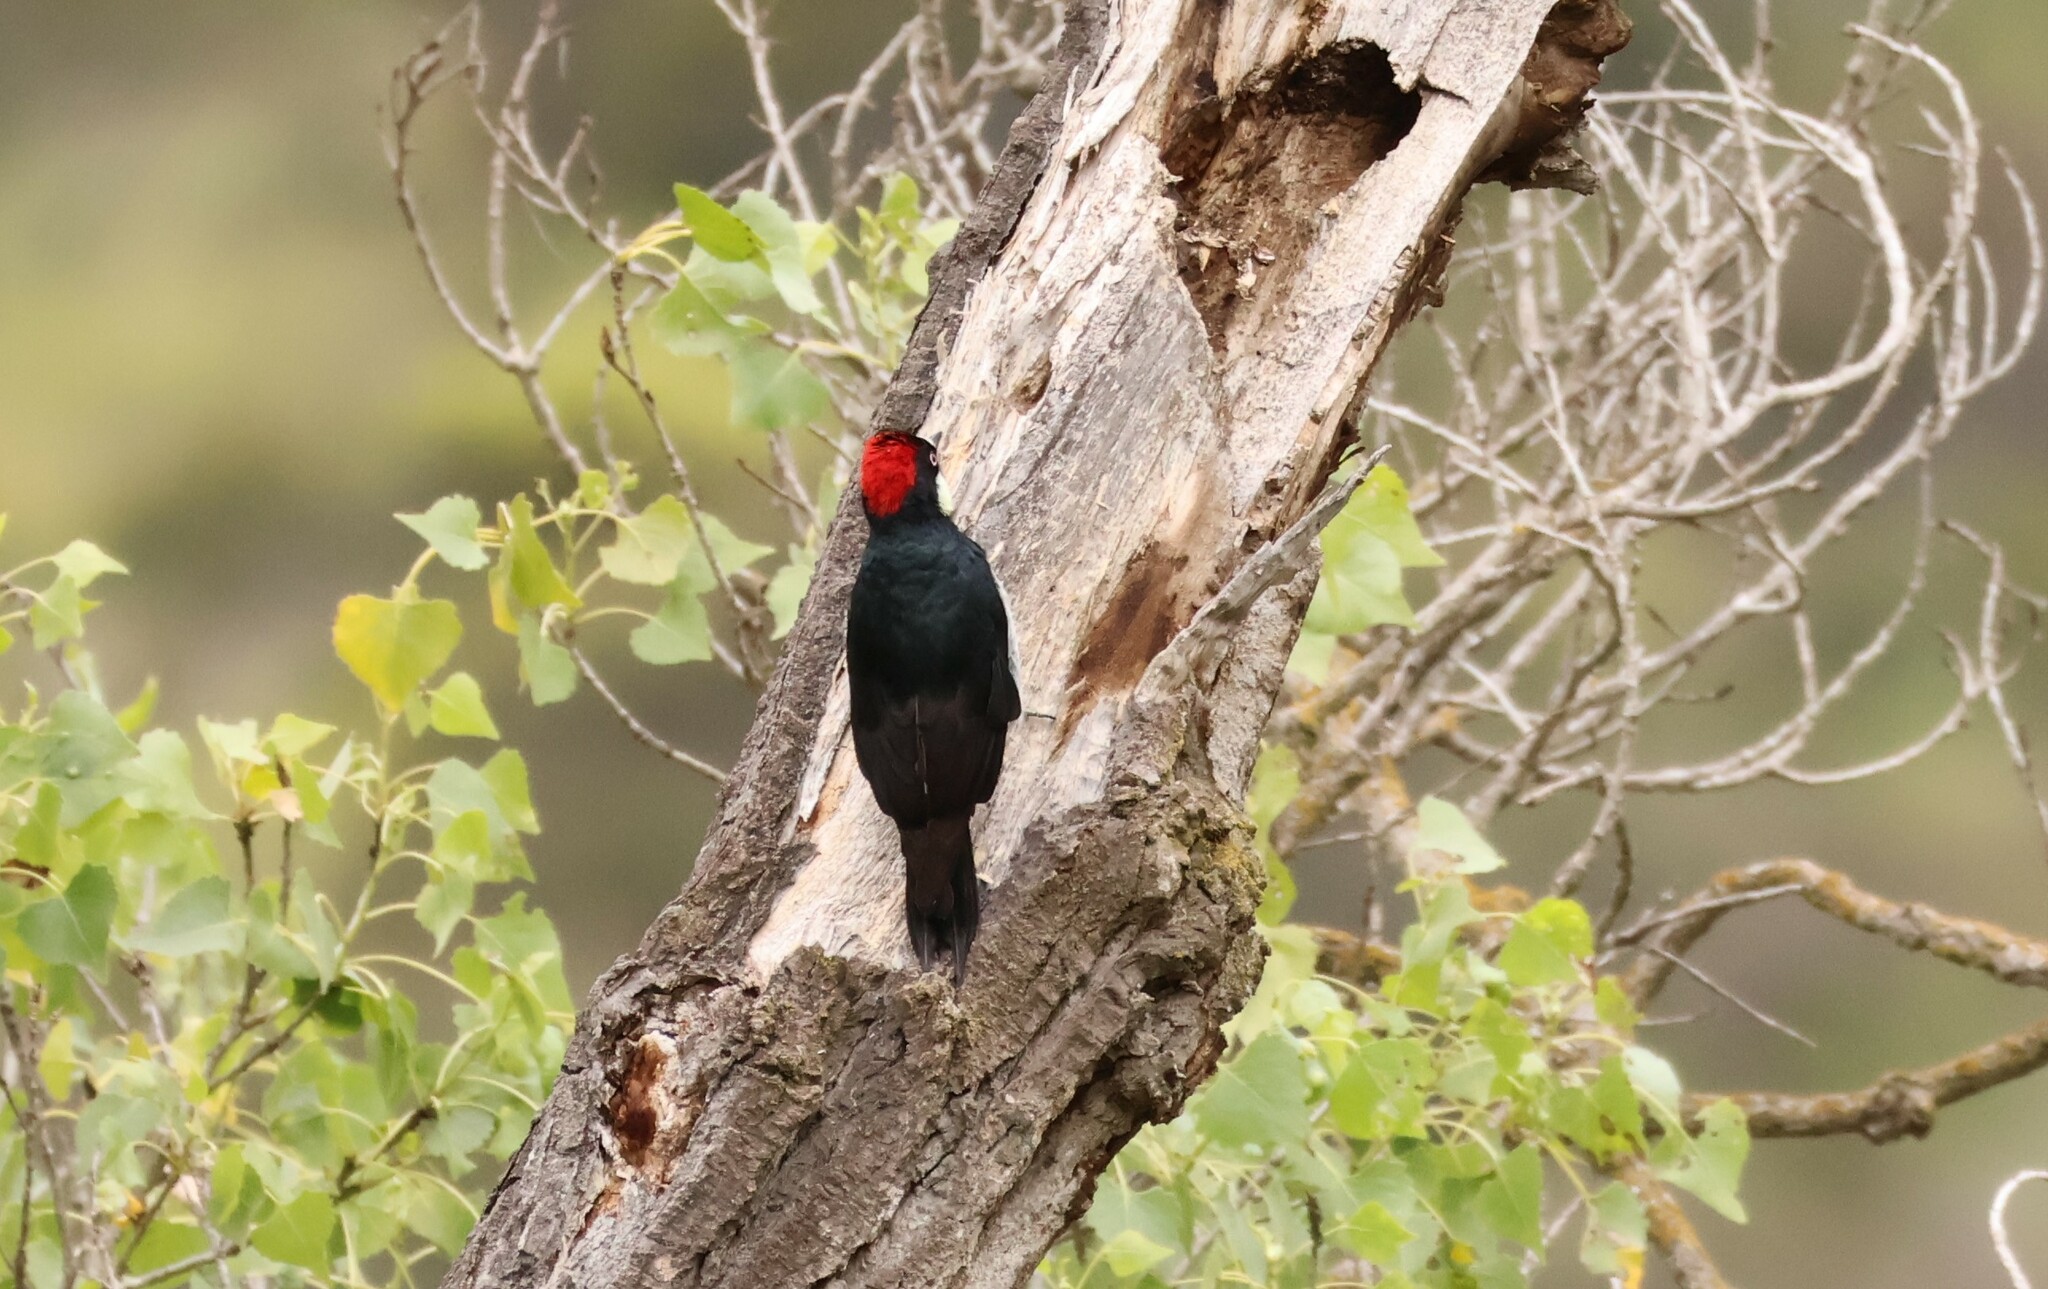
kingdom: Animalia
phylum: Chordata
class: Aves
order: Piciformes
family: Picidae
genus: Melanerpes
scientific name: Melanerpes formicivorus
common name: Acorn woodpecker
